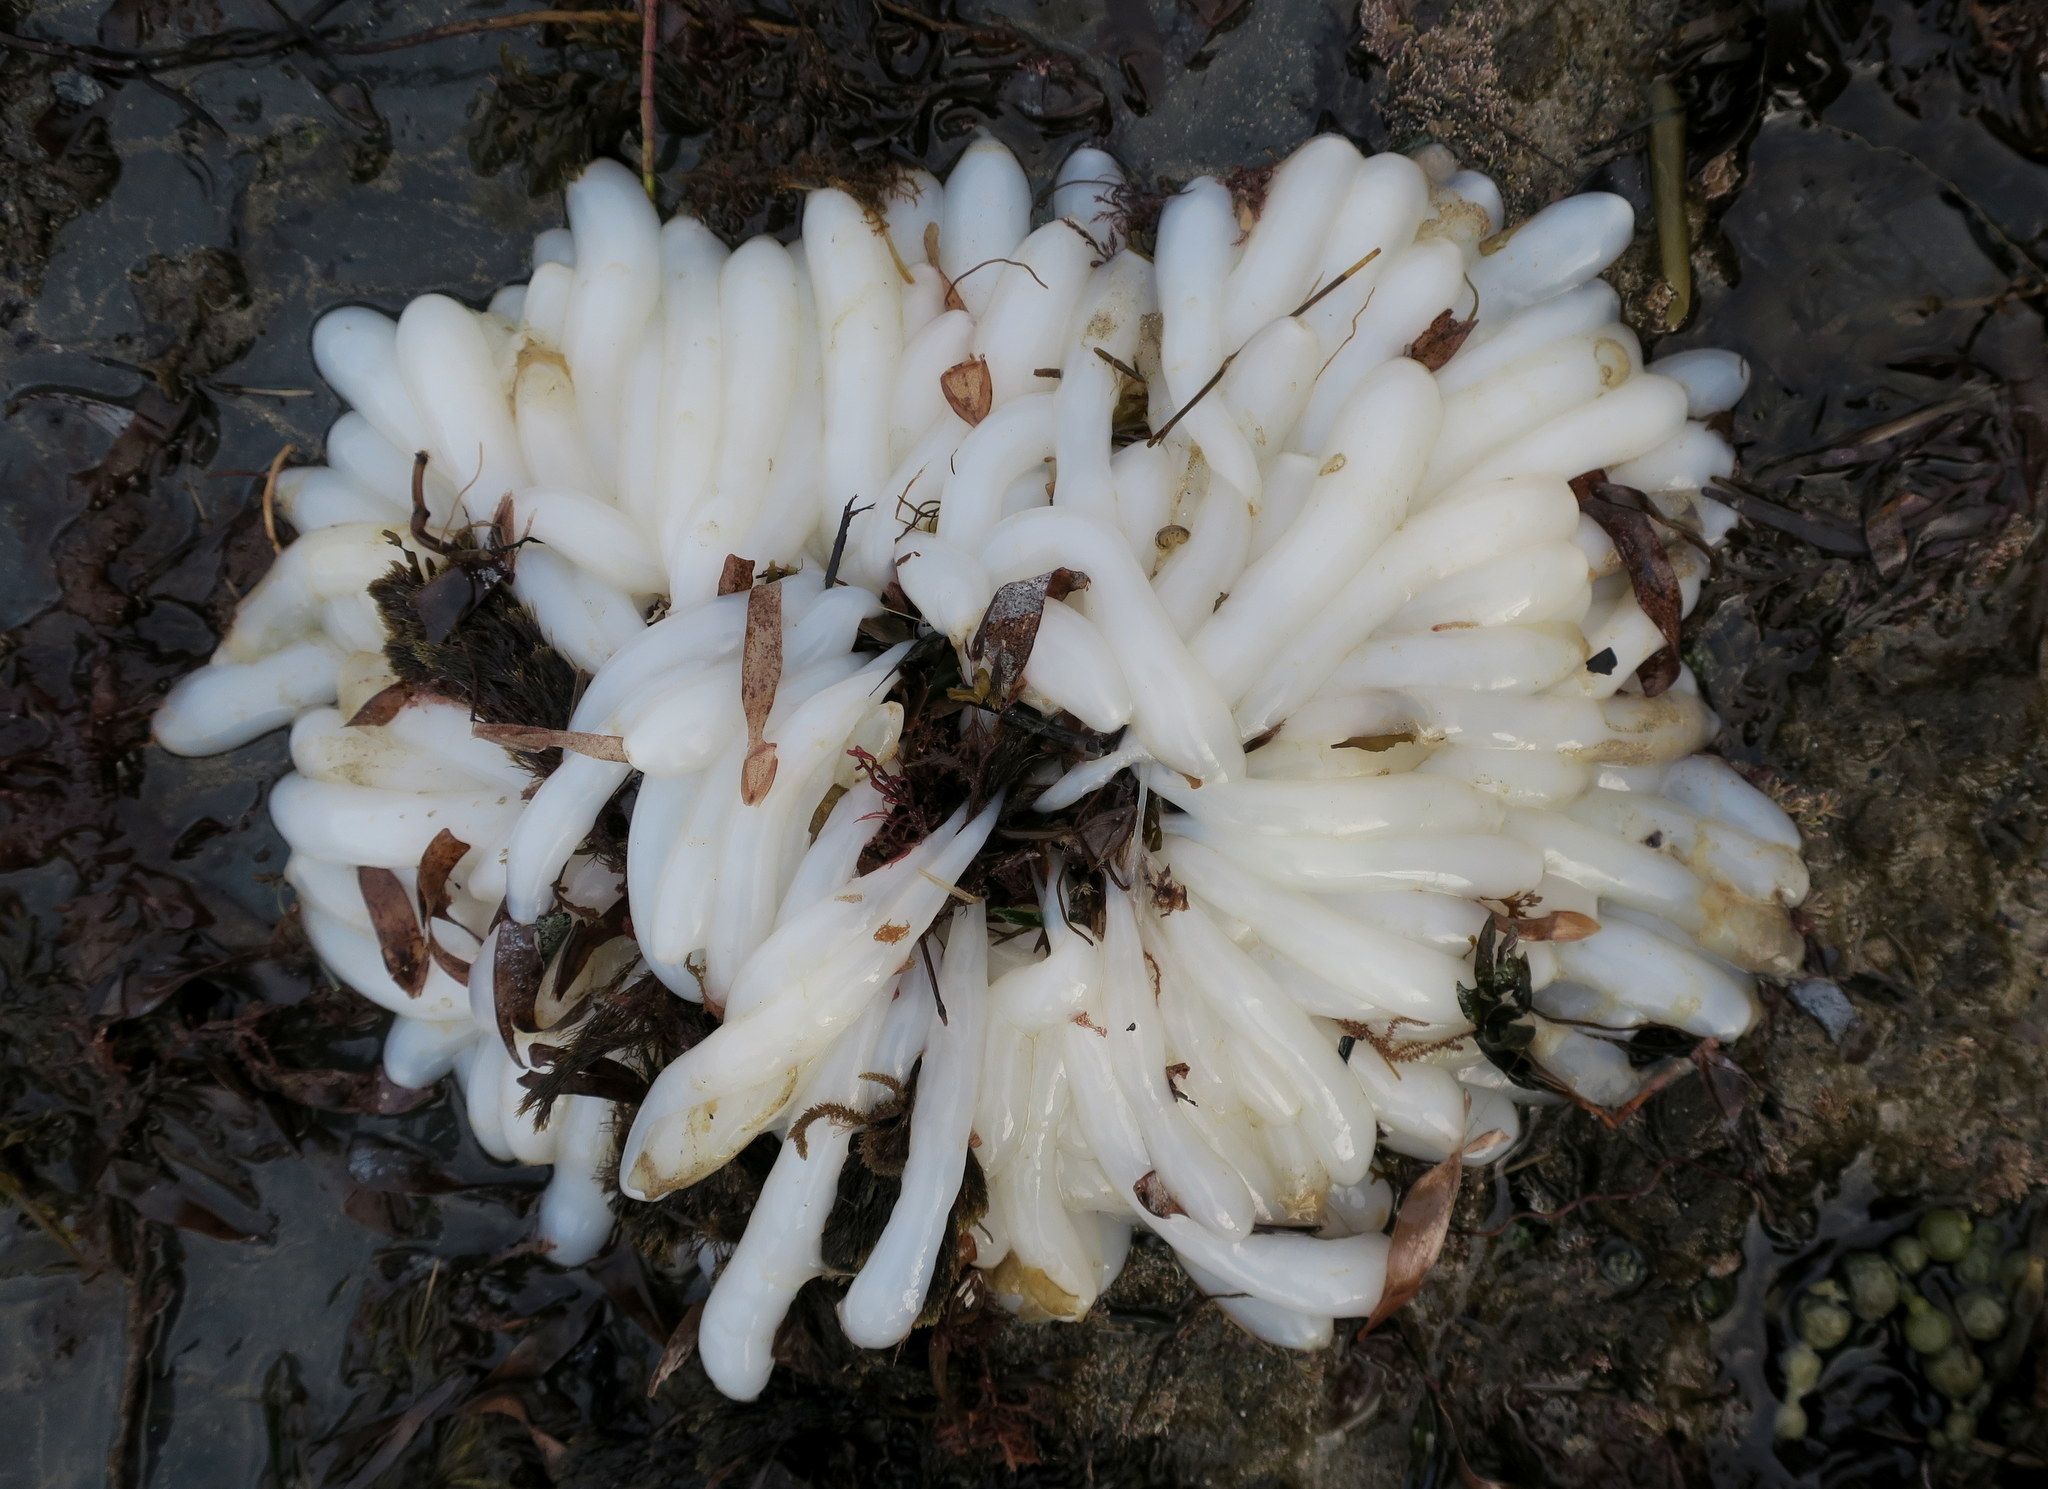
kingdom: Animalia
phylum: Mollusca
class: Cephalopoda
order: Myopsida
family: Loliginidae
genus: Sepioteuthis
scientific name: Sepioteuthis australis
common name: Southern reef squid
